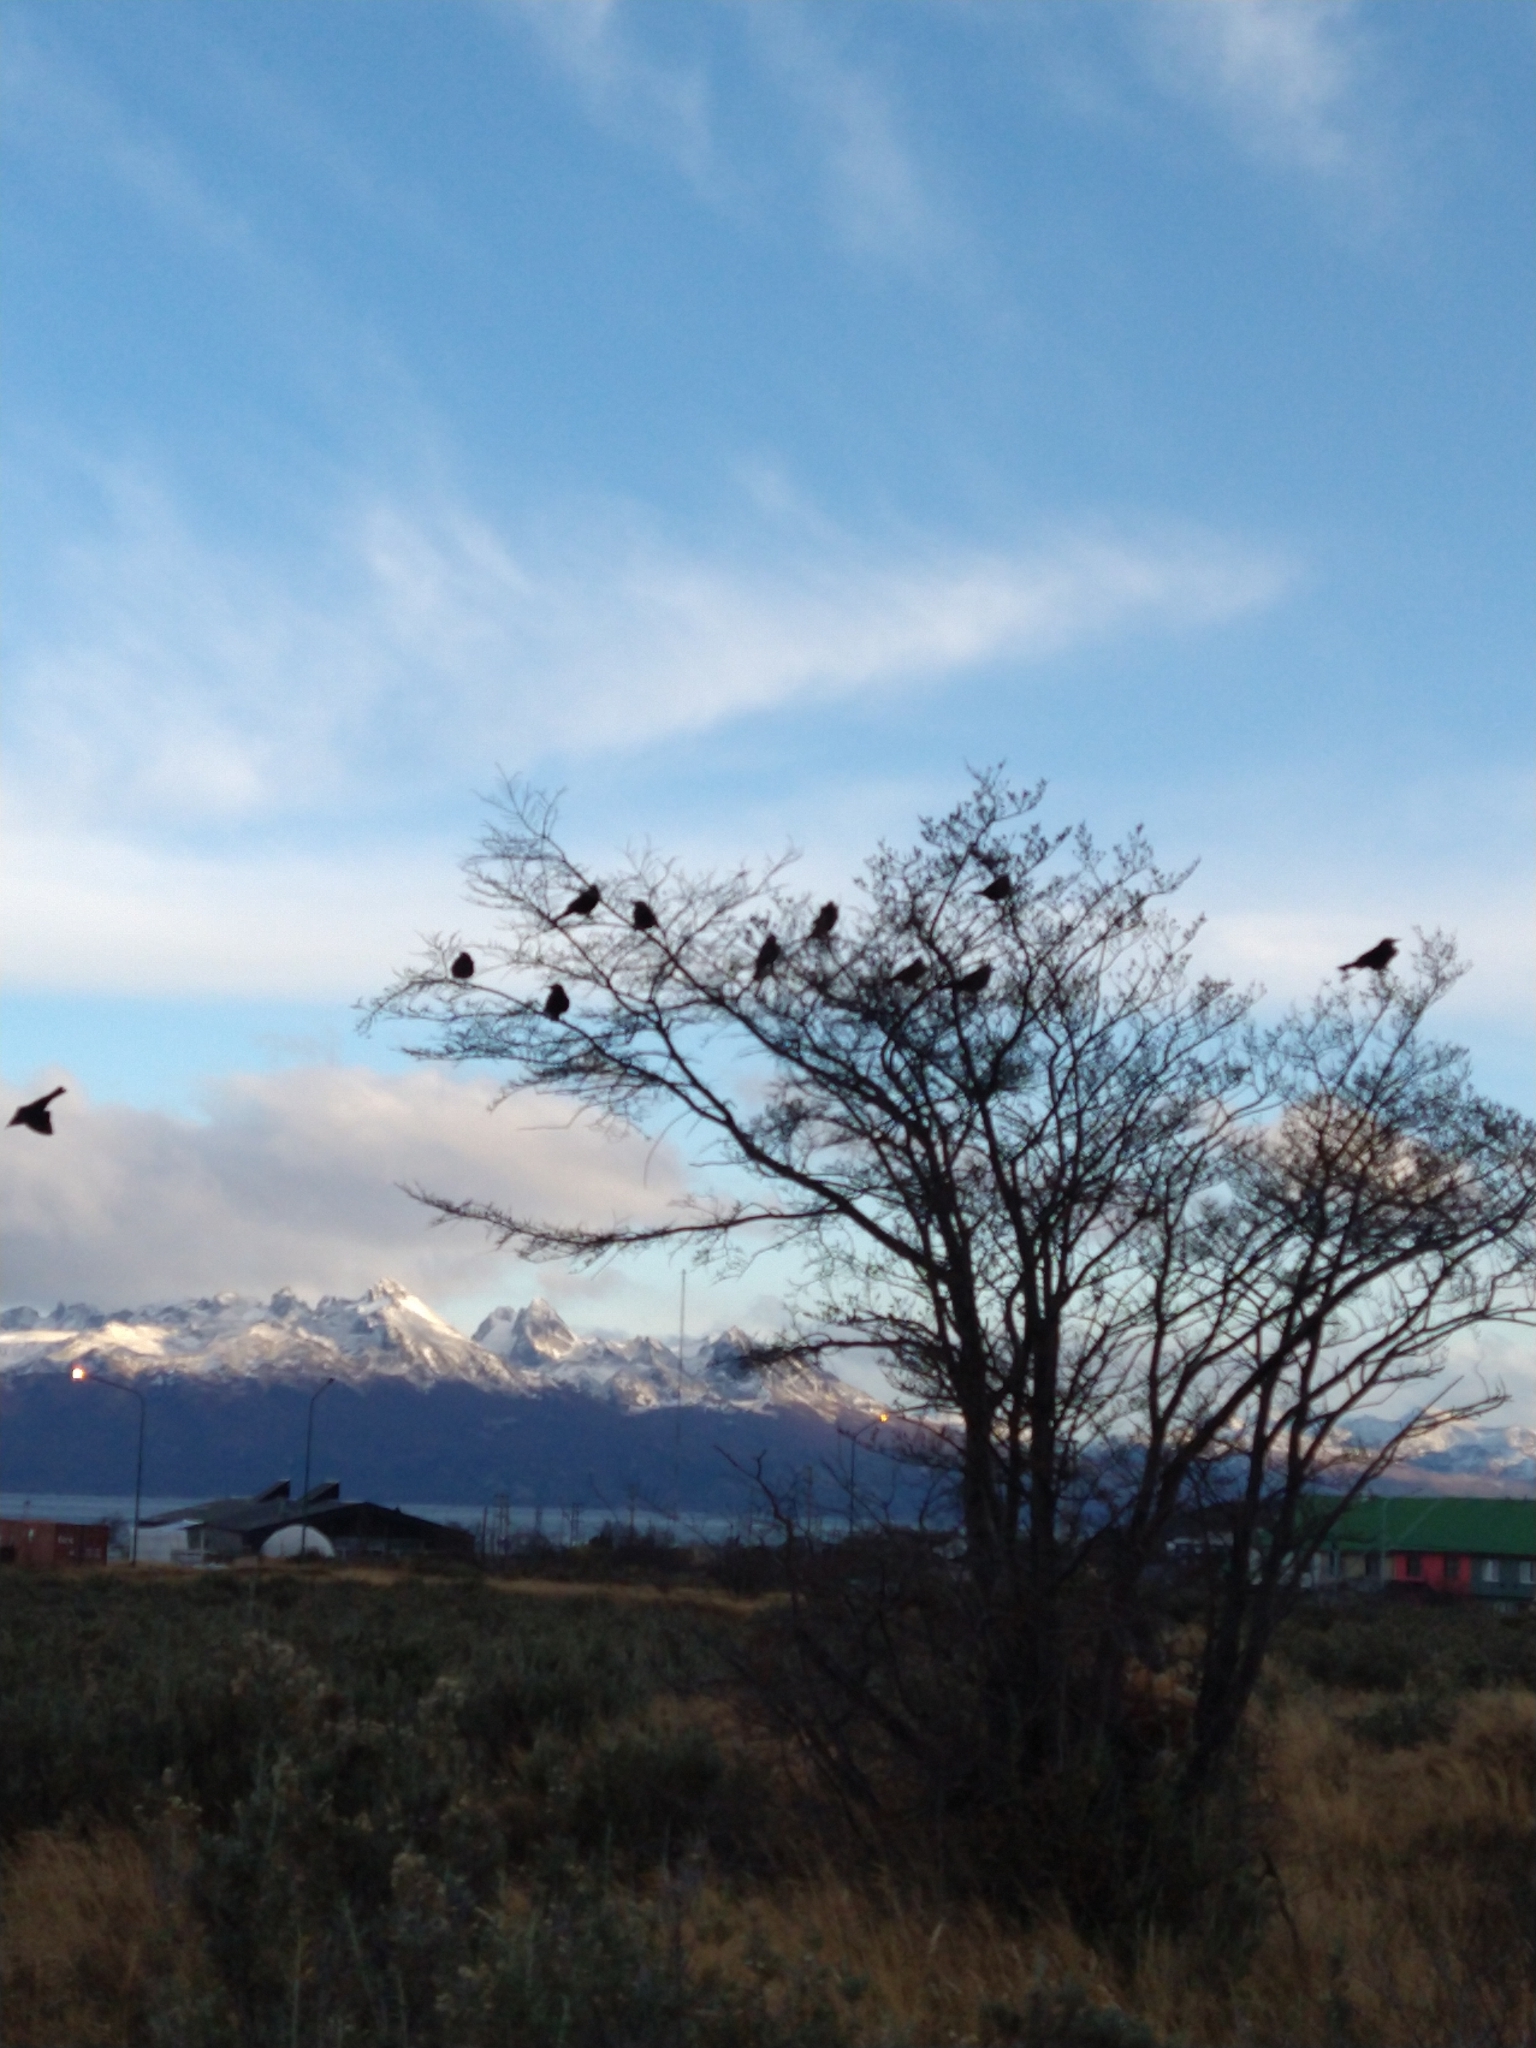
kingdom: Animalia
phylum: Chordata
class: Aves
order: Passeriformes
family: Icteridae
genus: Curaeus
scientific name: Curaeus curaeus
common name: Austral blackbird
